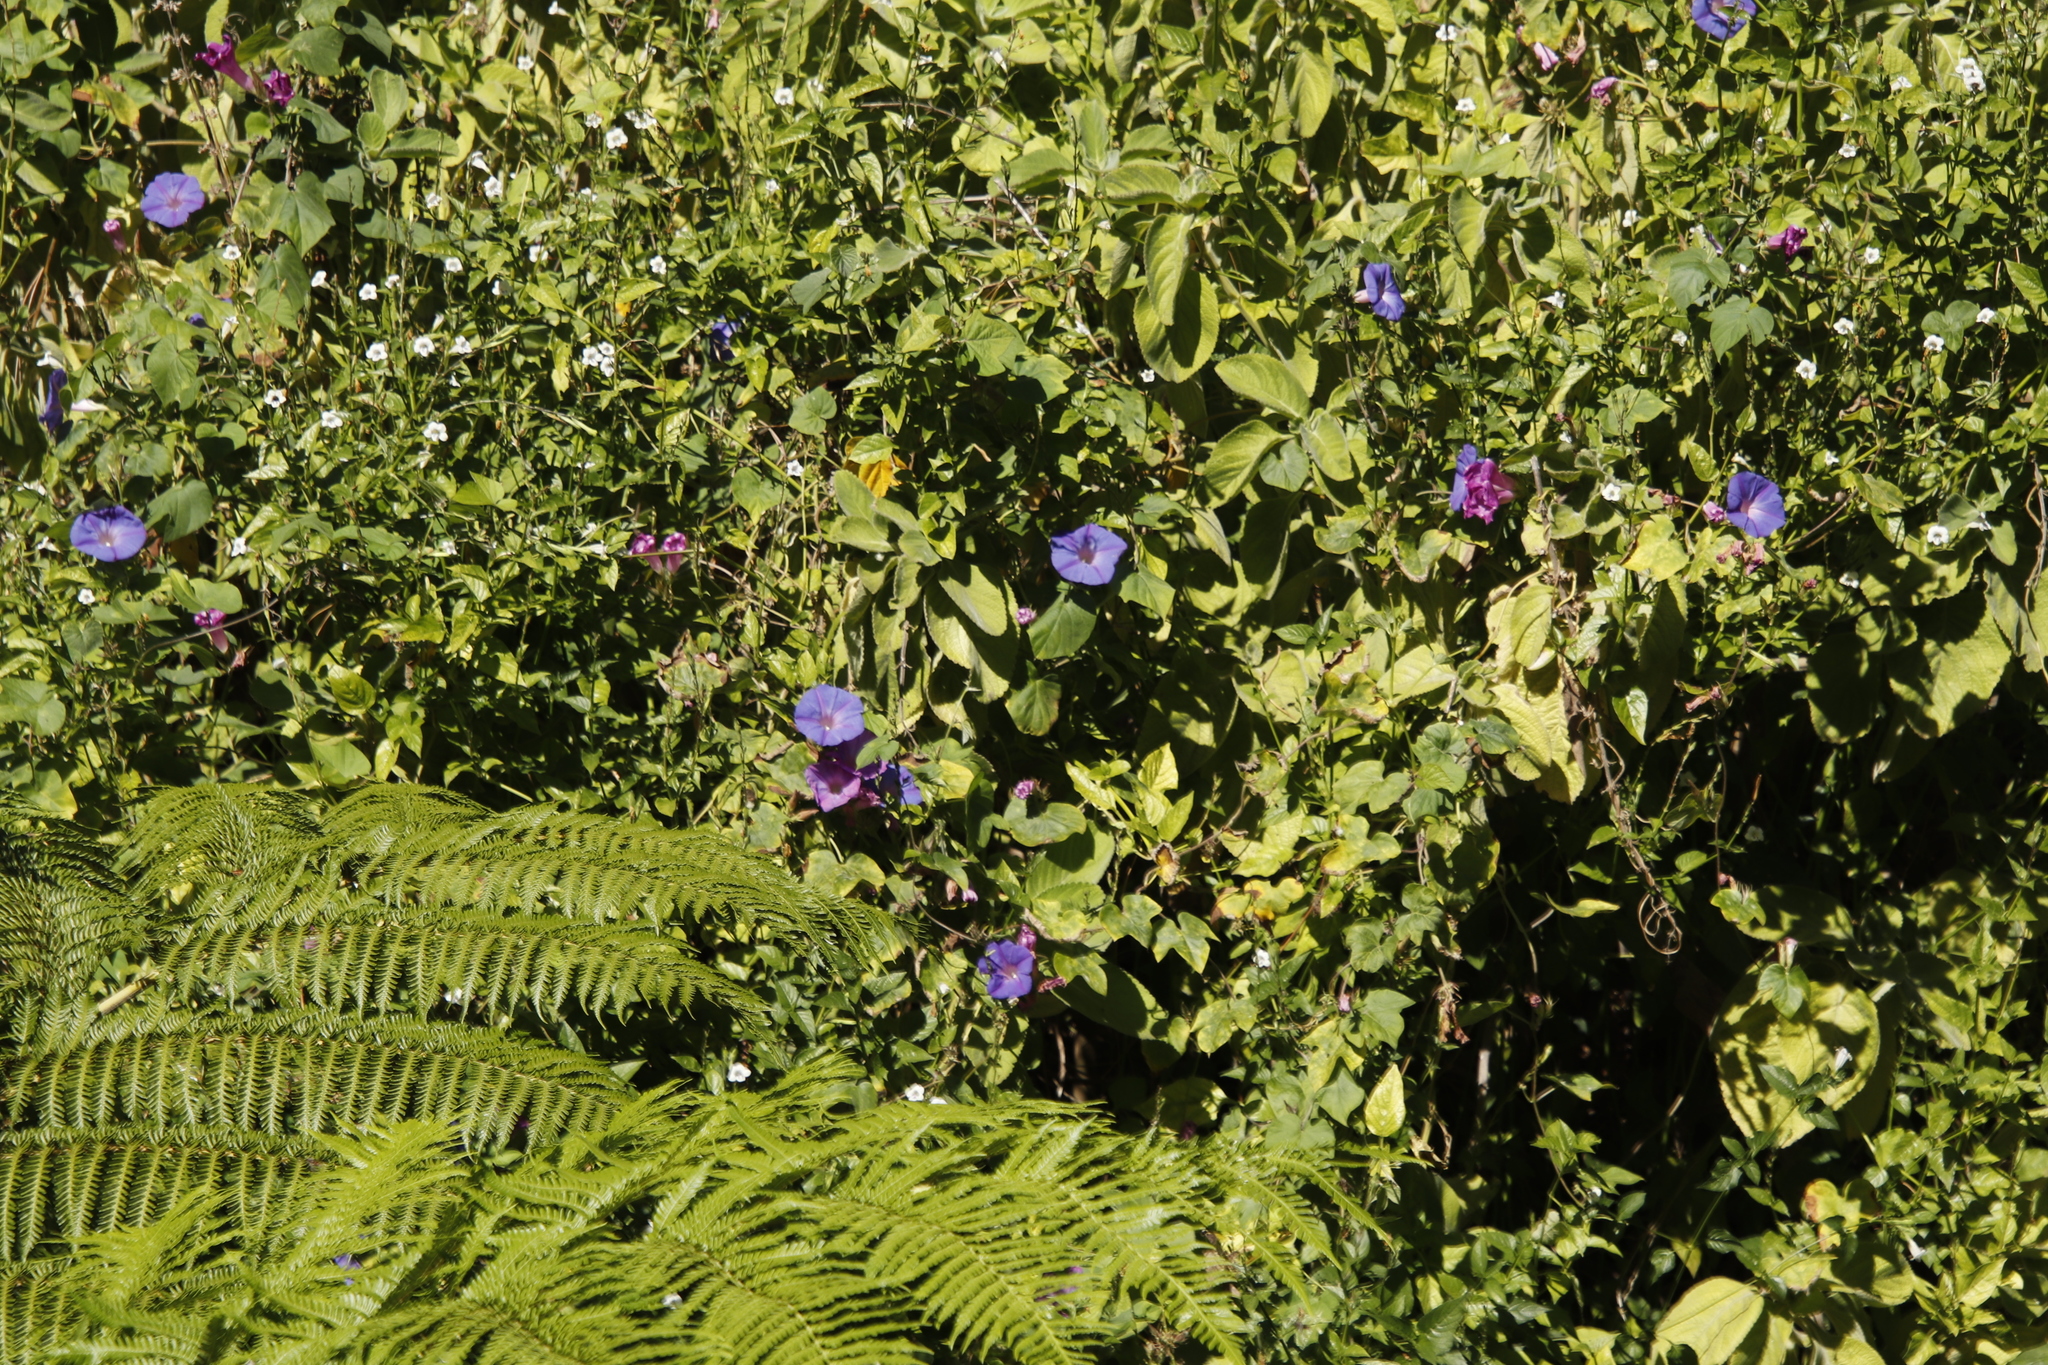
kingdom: Plantae
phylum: Tracheophyta
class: Magnoliopsida
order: Solanales
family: Convolvulaceae
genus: Ipomoea
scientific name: Ipomoea indica
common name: Blue dawnflower
